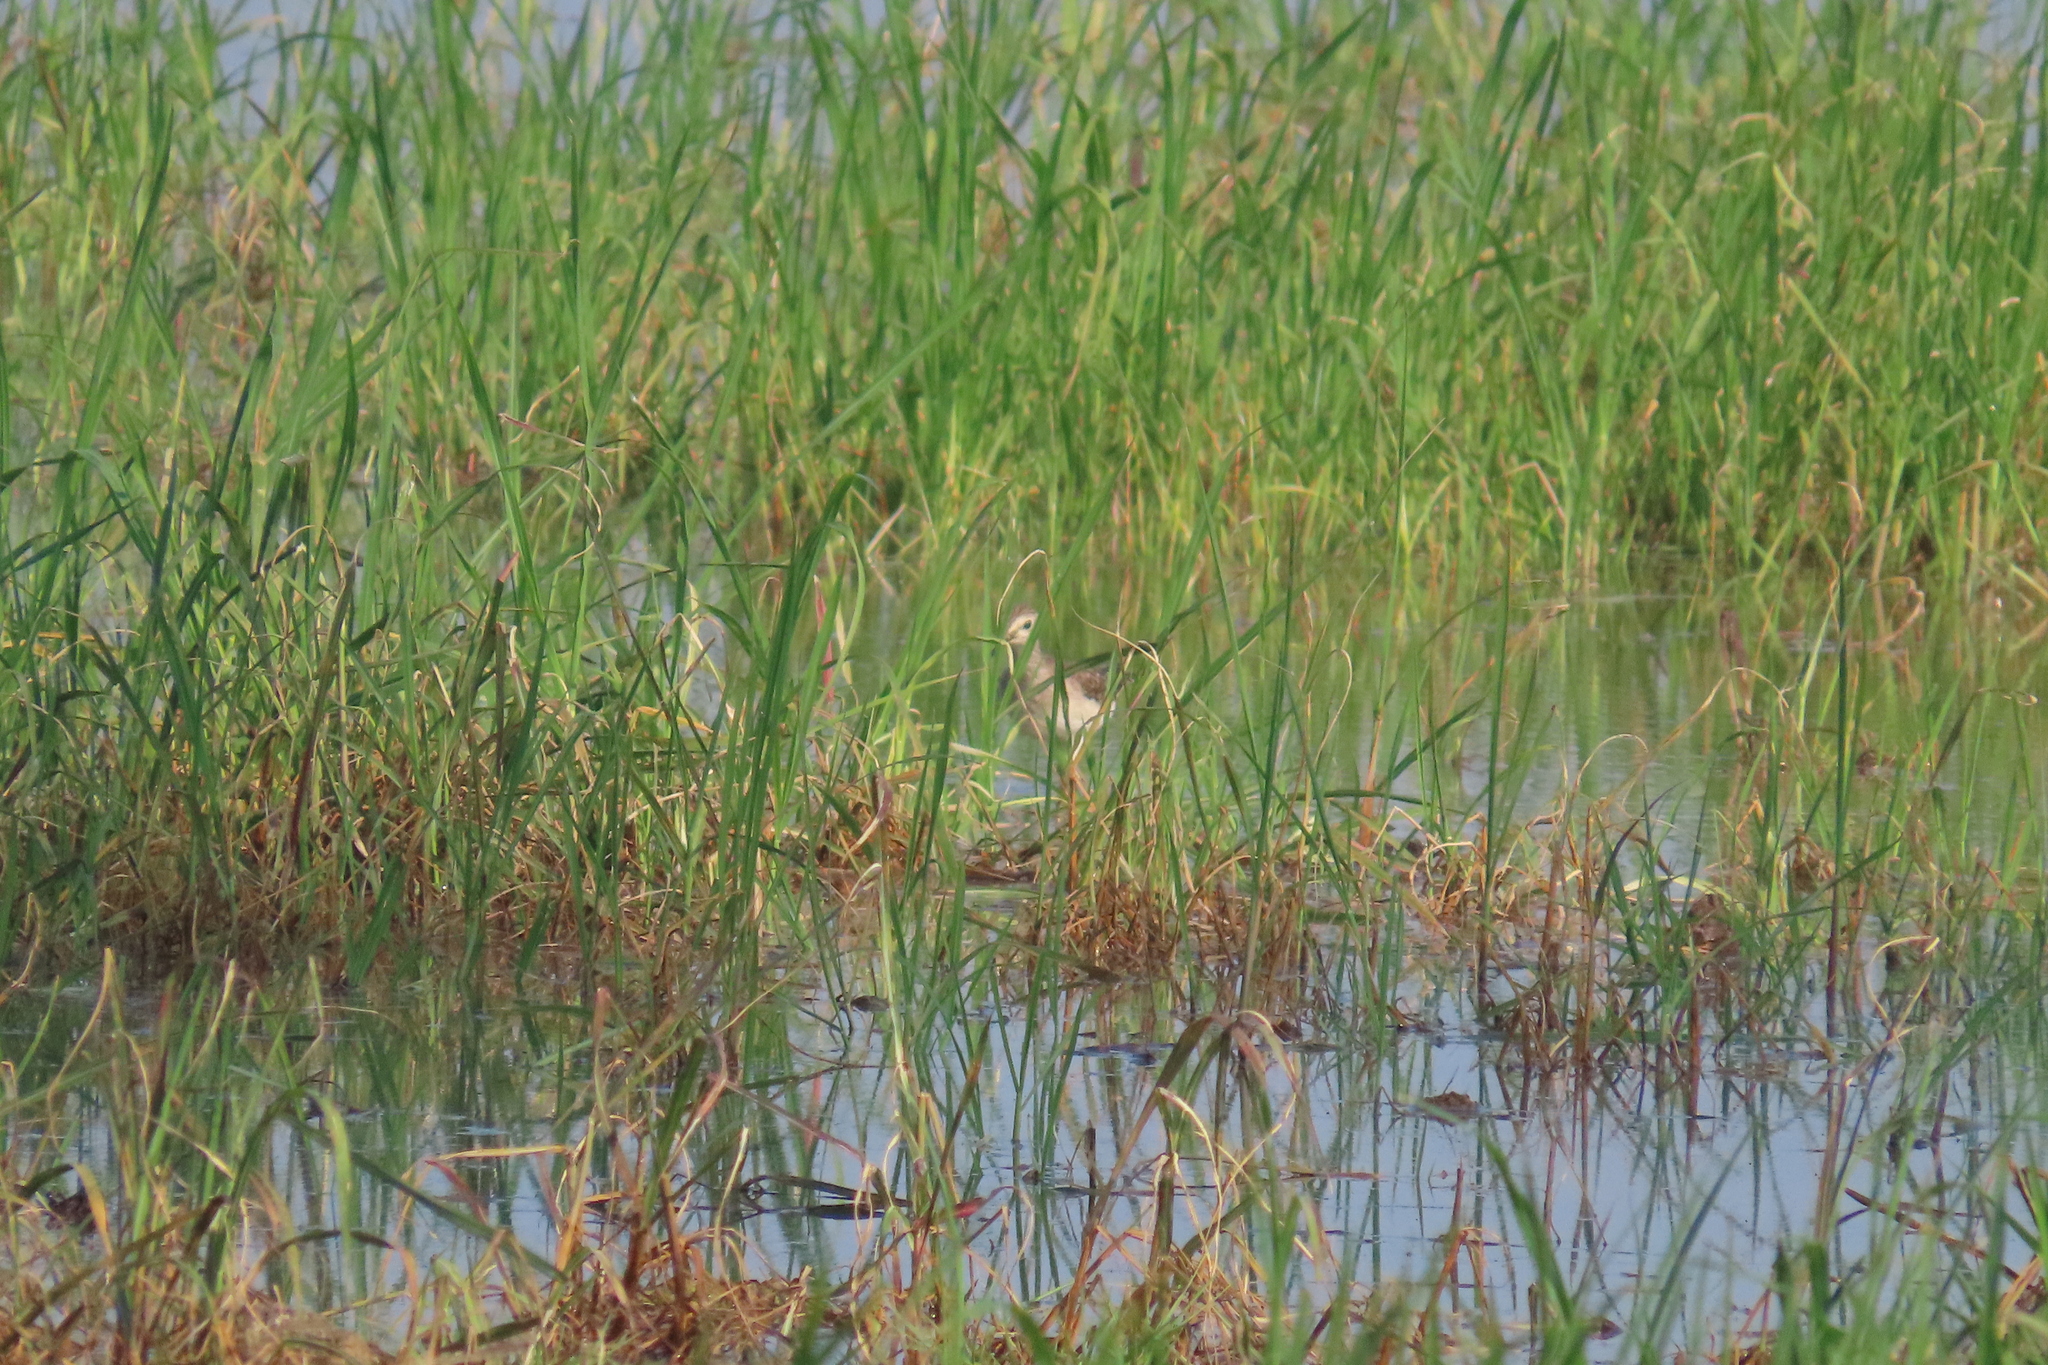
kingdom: Animalia
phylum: Chordata
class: Aves
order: Charadriiformes
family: Scolopacidae
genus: Tringa
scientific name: Tringa glareola
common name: Wood sandpiper
